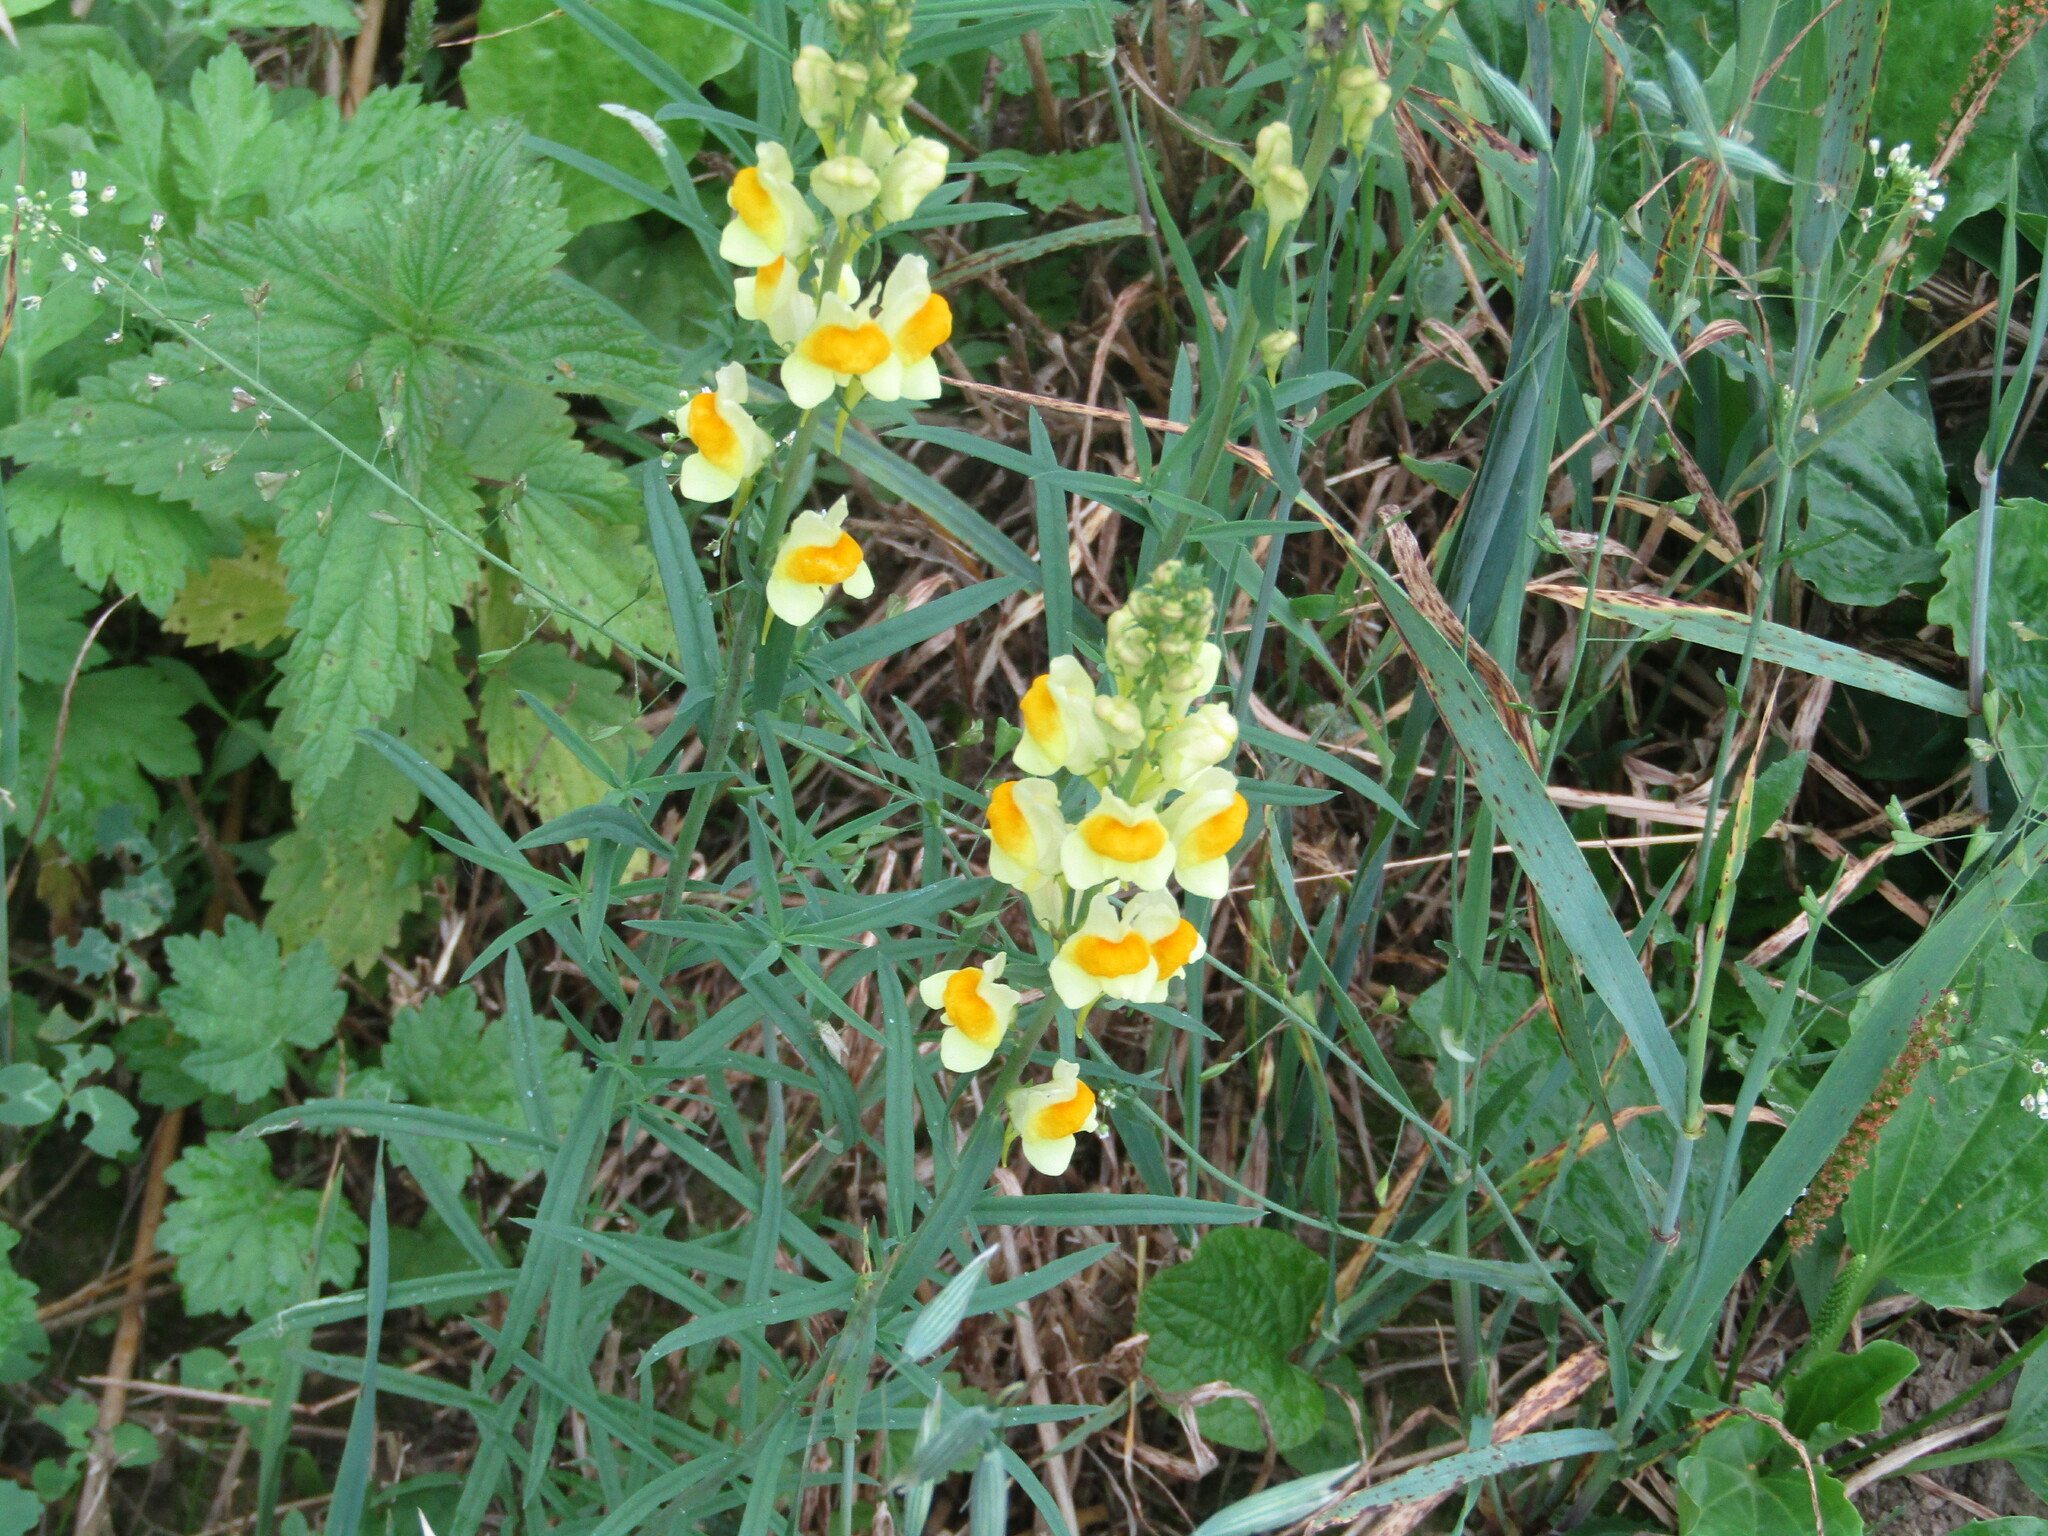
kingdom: Plantae
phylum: Tracheophyta
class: Magnoliopsida
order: Lamiales
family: Plantaginaceae
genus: Linaria
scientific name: Linaria vulgaris
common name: Butter and eggs
